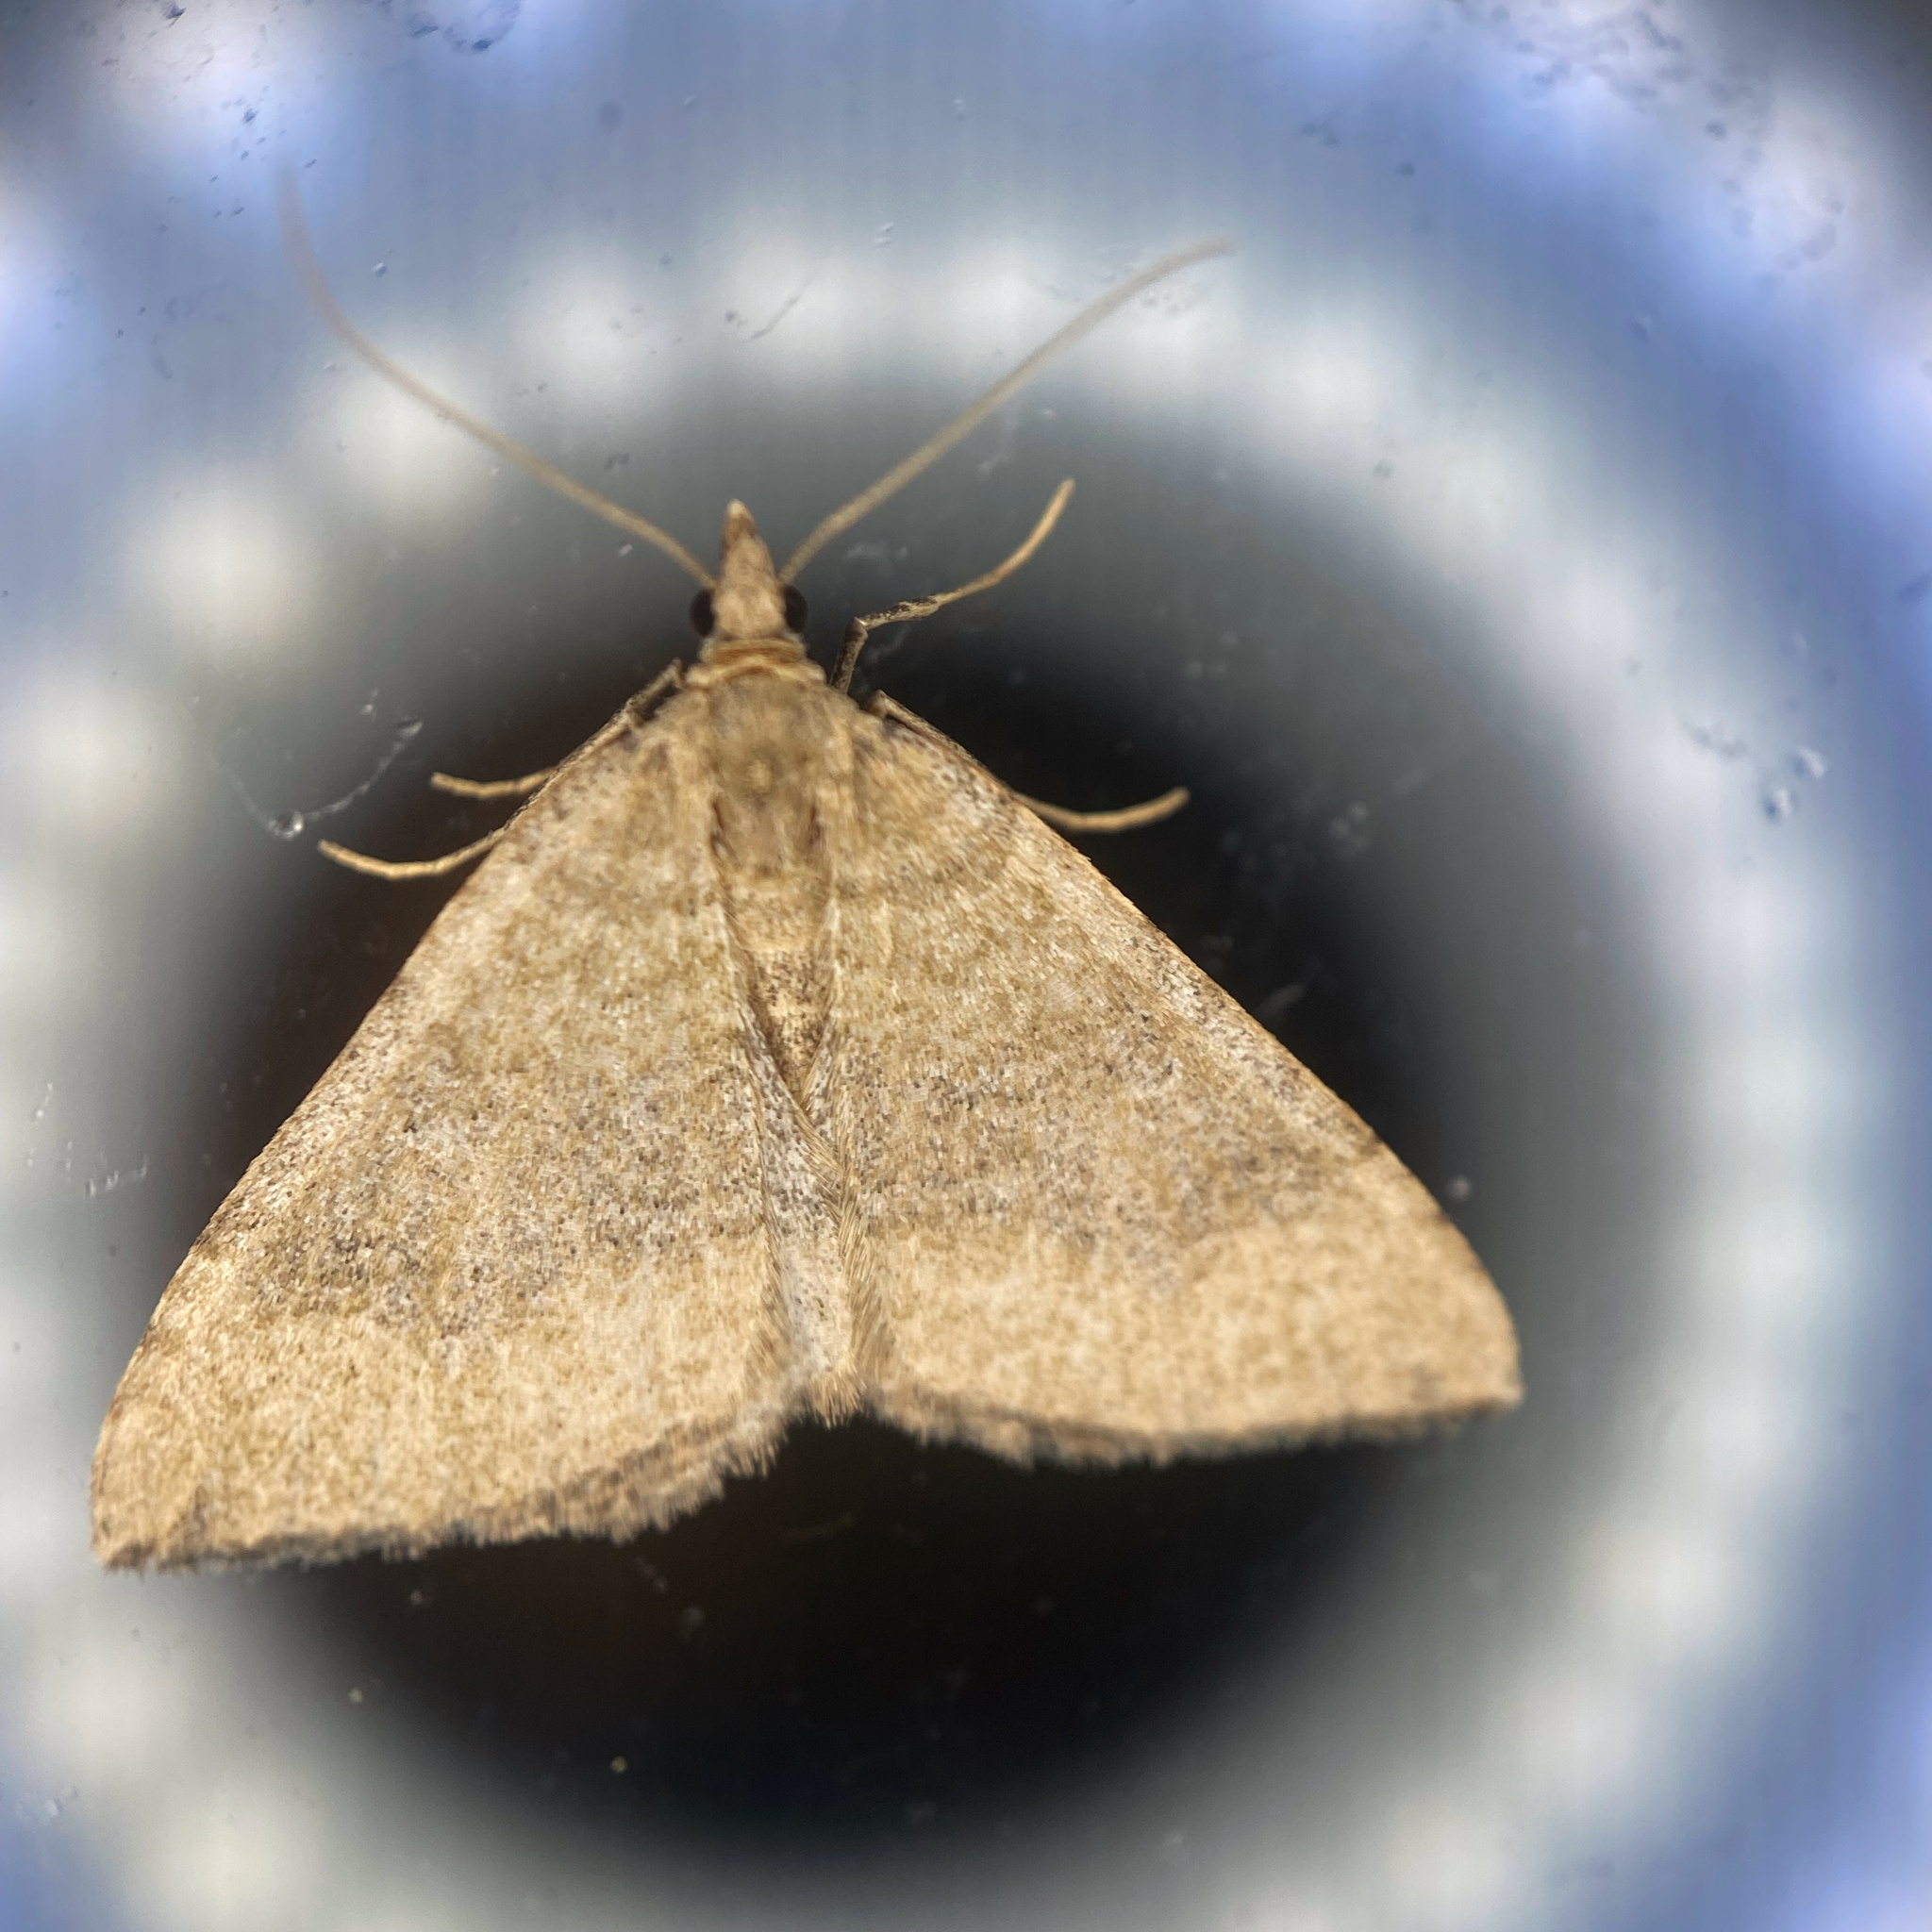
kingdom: Animalia
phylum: Arthropoda
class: Insecta
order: Lepidoptera
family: Geometridae
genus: Epyaxa
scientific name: Epyaxa rosearia
